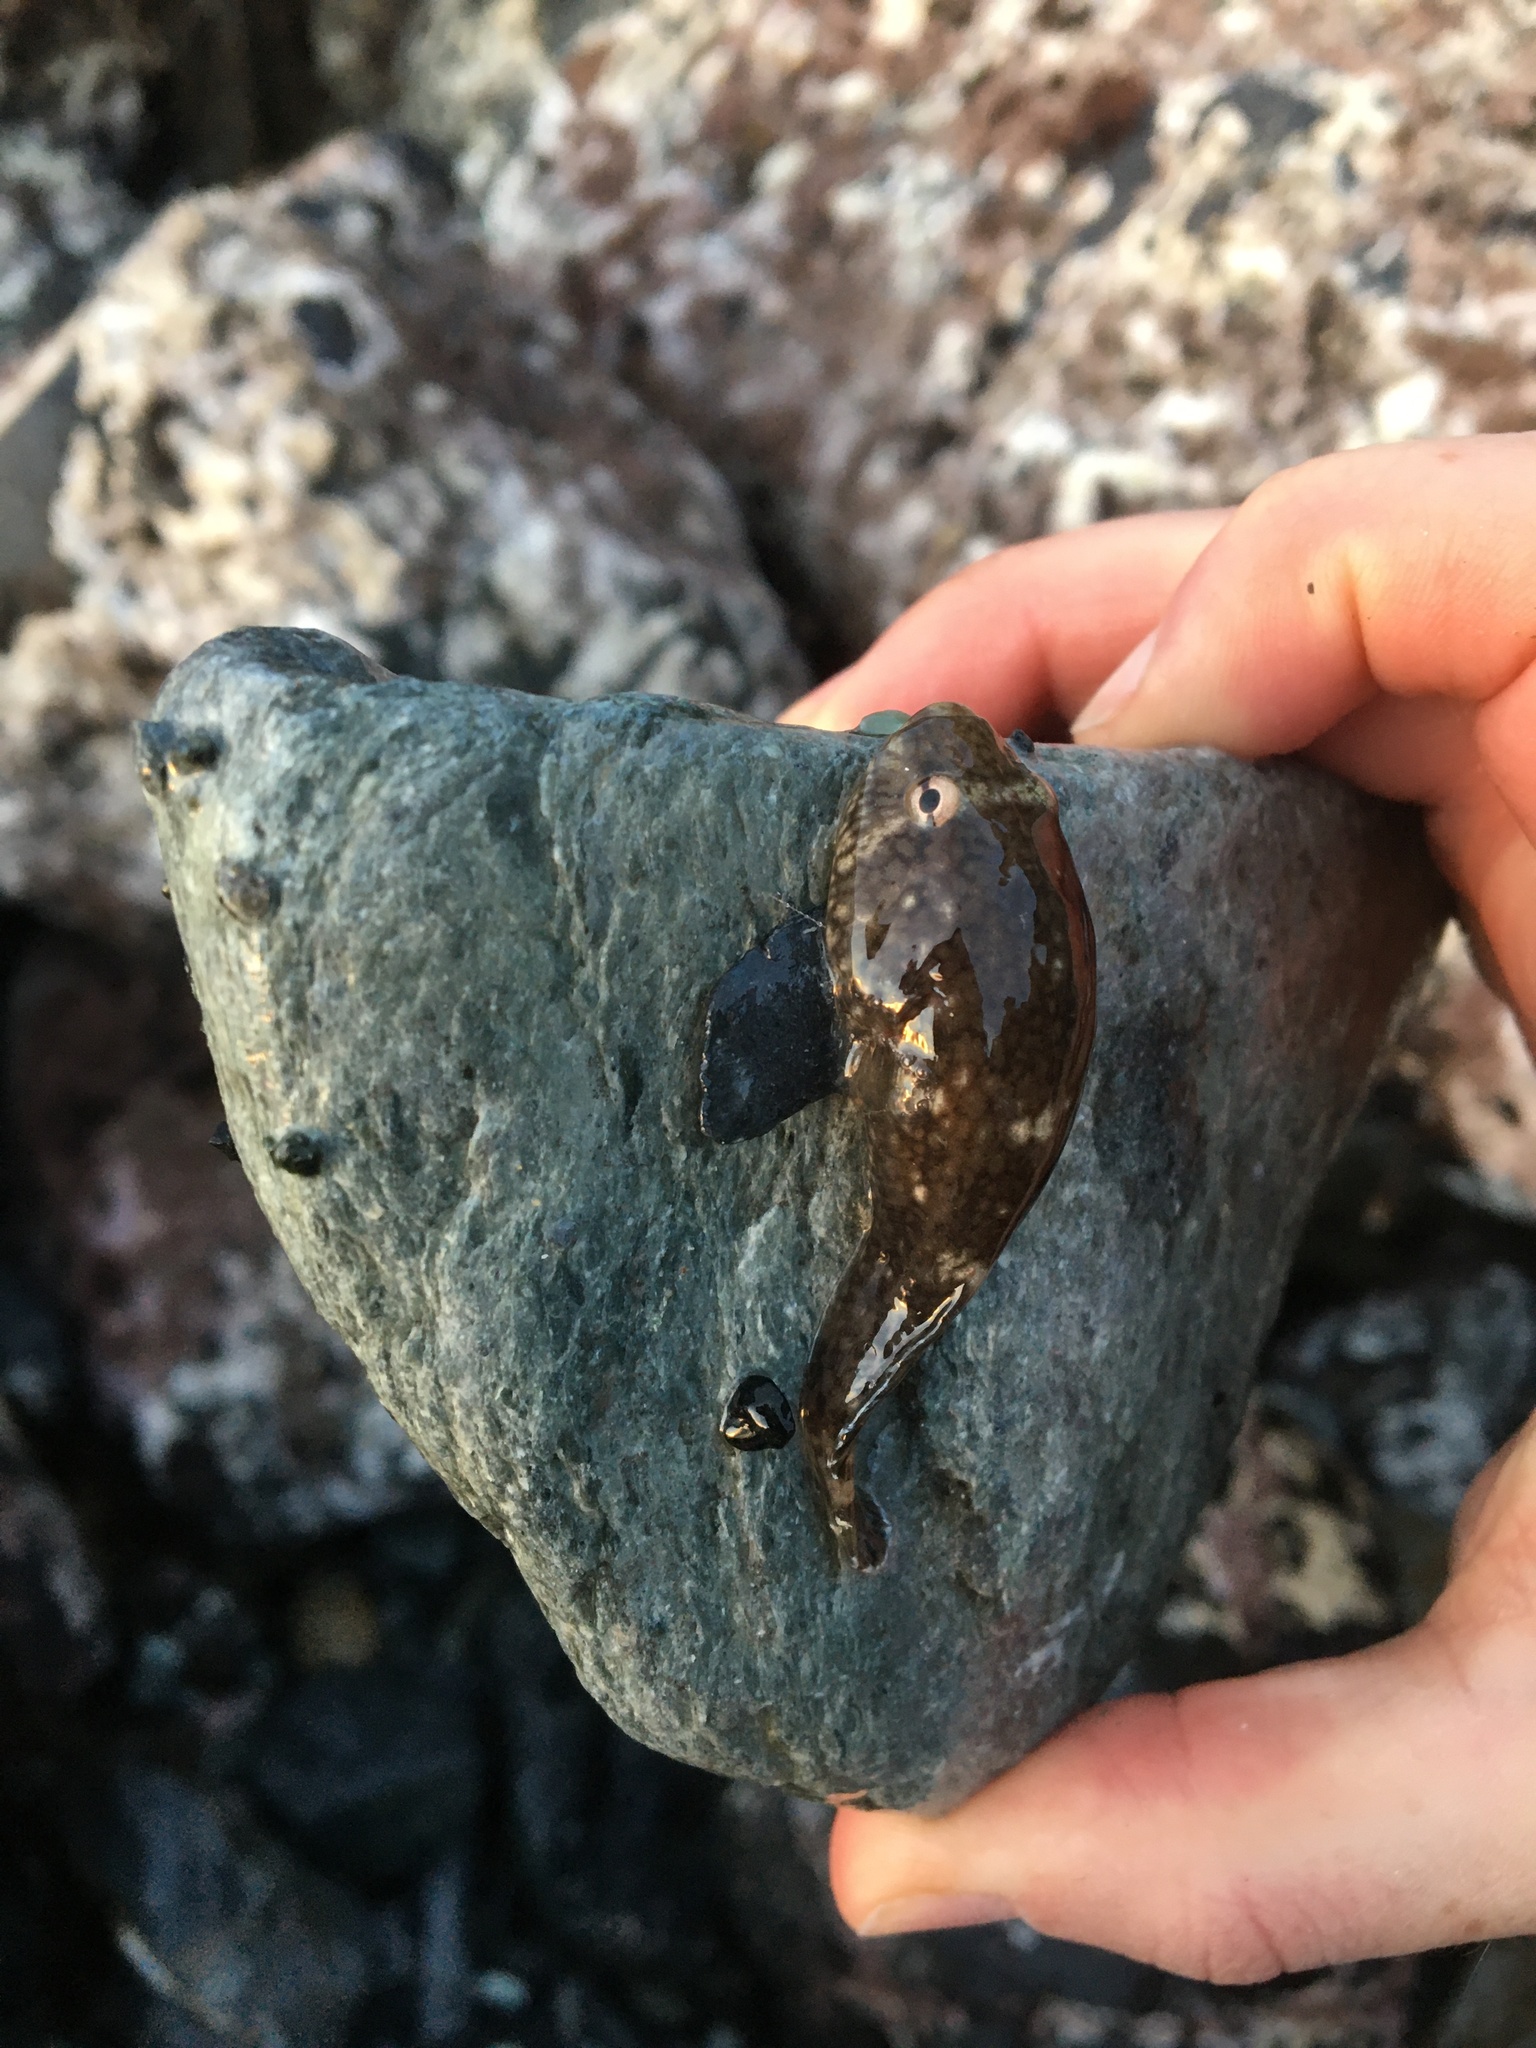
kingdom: Animalia
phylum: Chordata
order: Gobiesociformes
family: Gobiesocidae
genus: Gobiesox
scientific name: Gobiesox maeandricus
